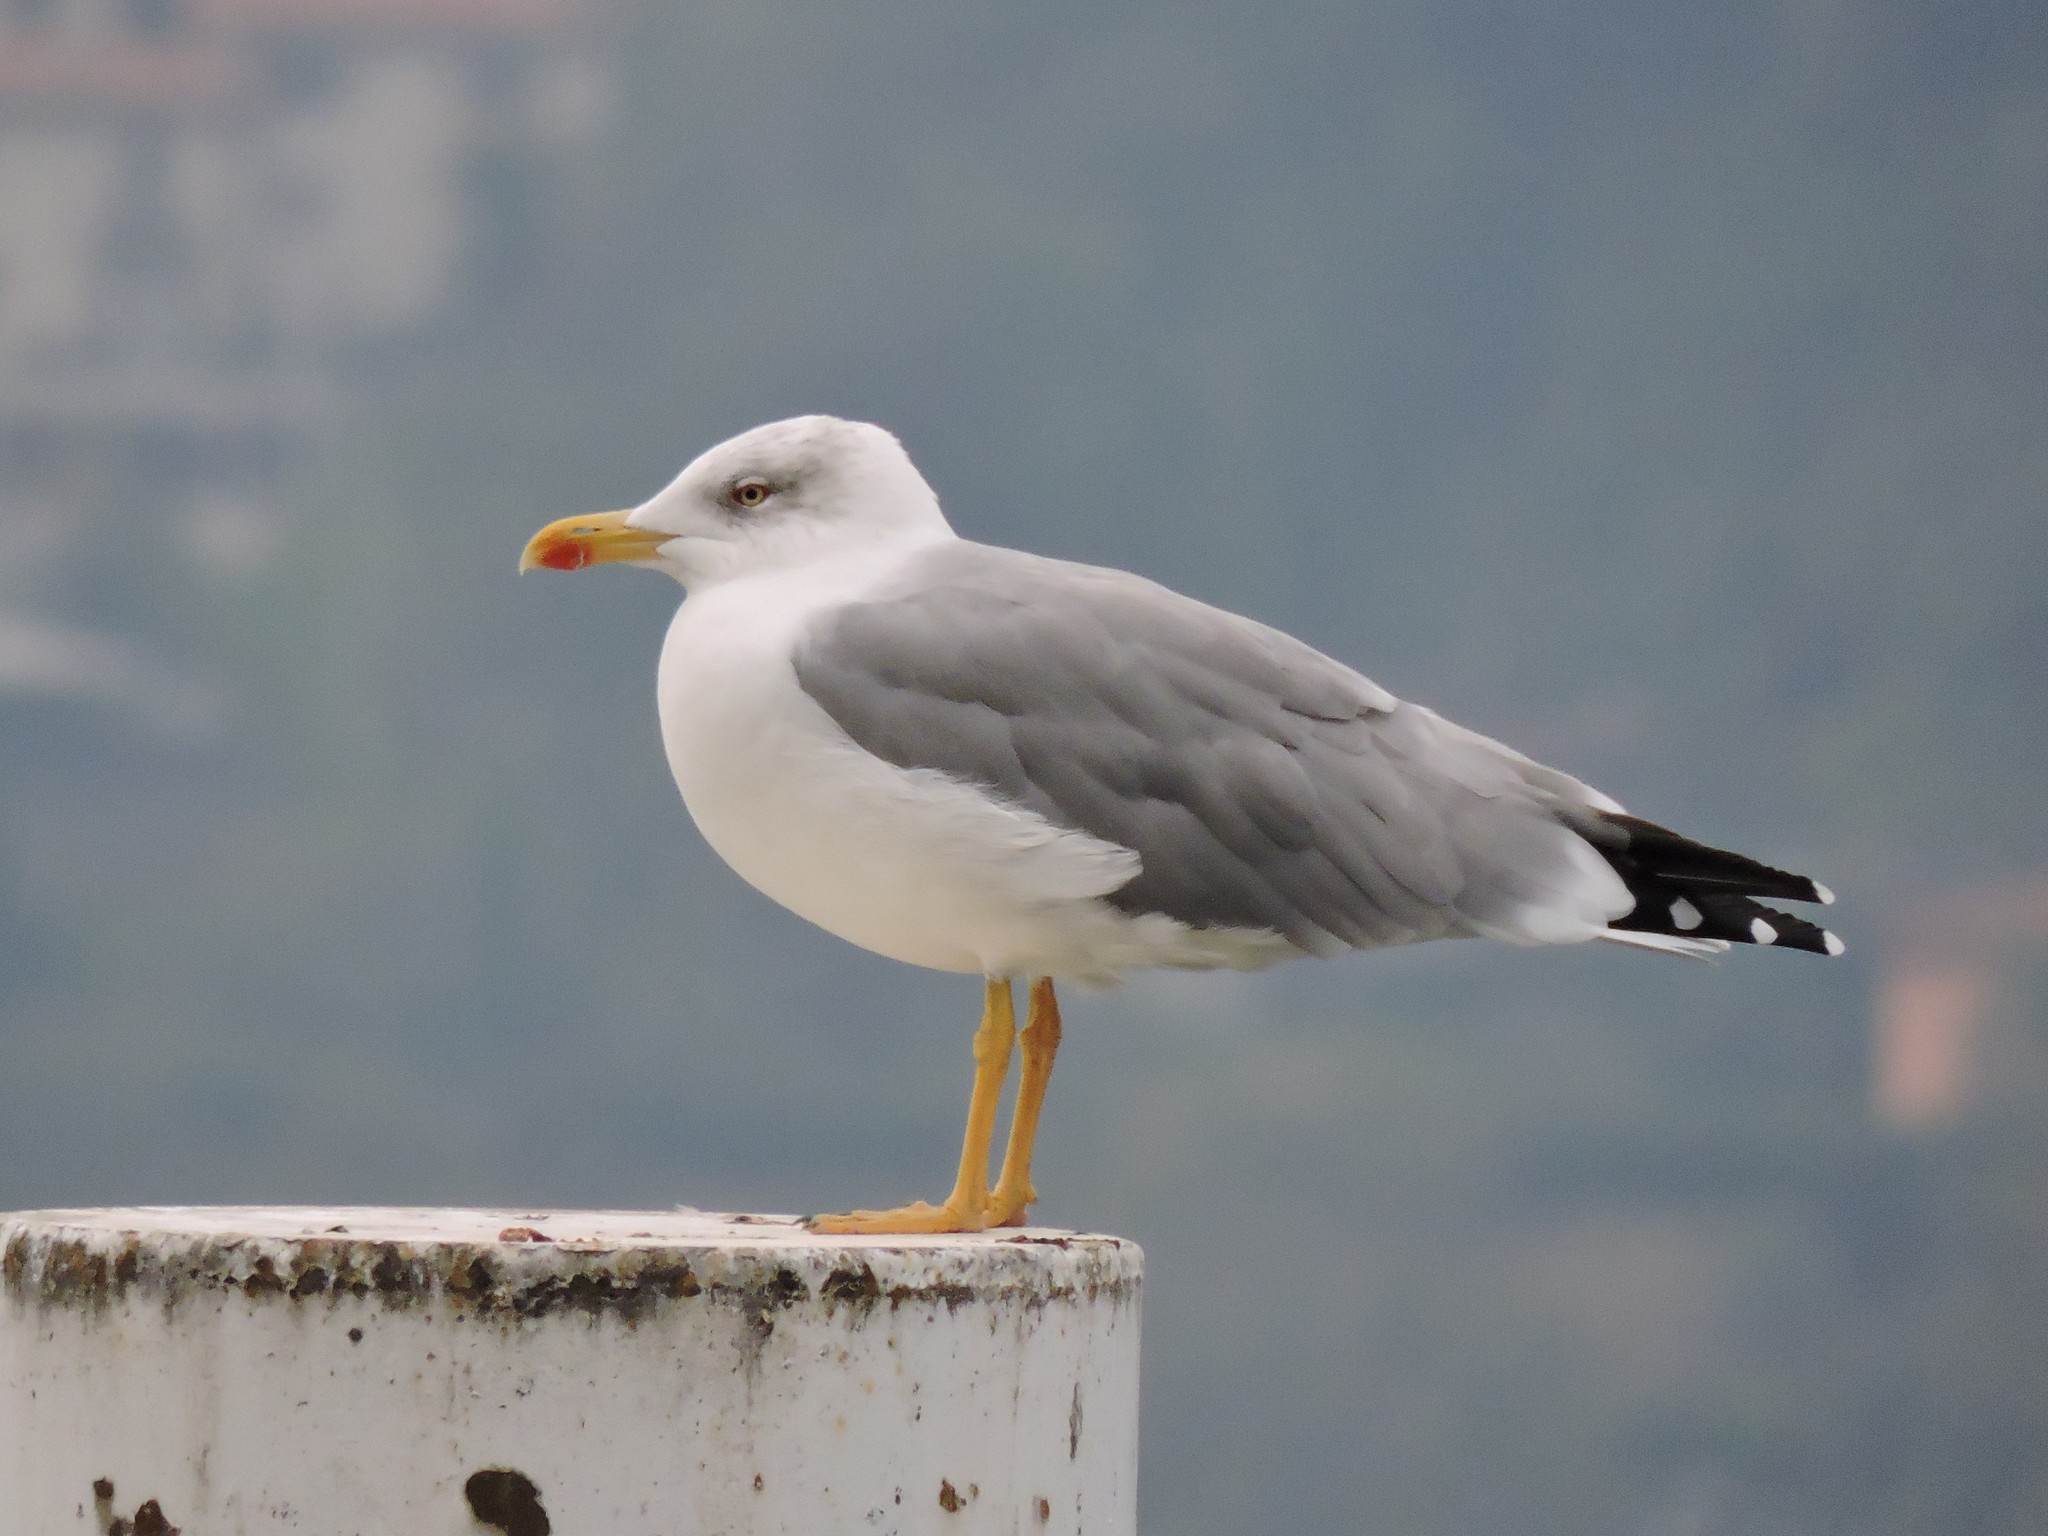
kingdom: Animalia
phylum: Chordata
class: Aves
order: Charadriiformes
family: Laridae
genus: Larus
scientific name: Larus michahellis
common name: Yellow-legged gull
